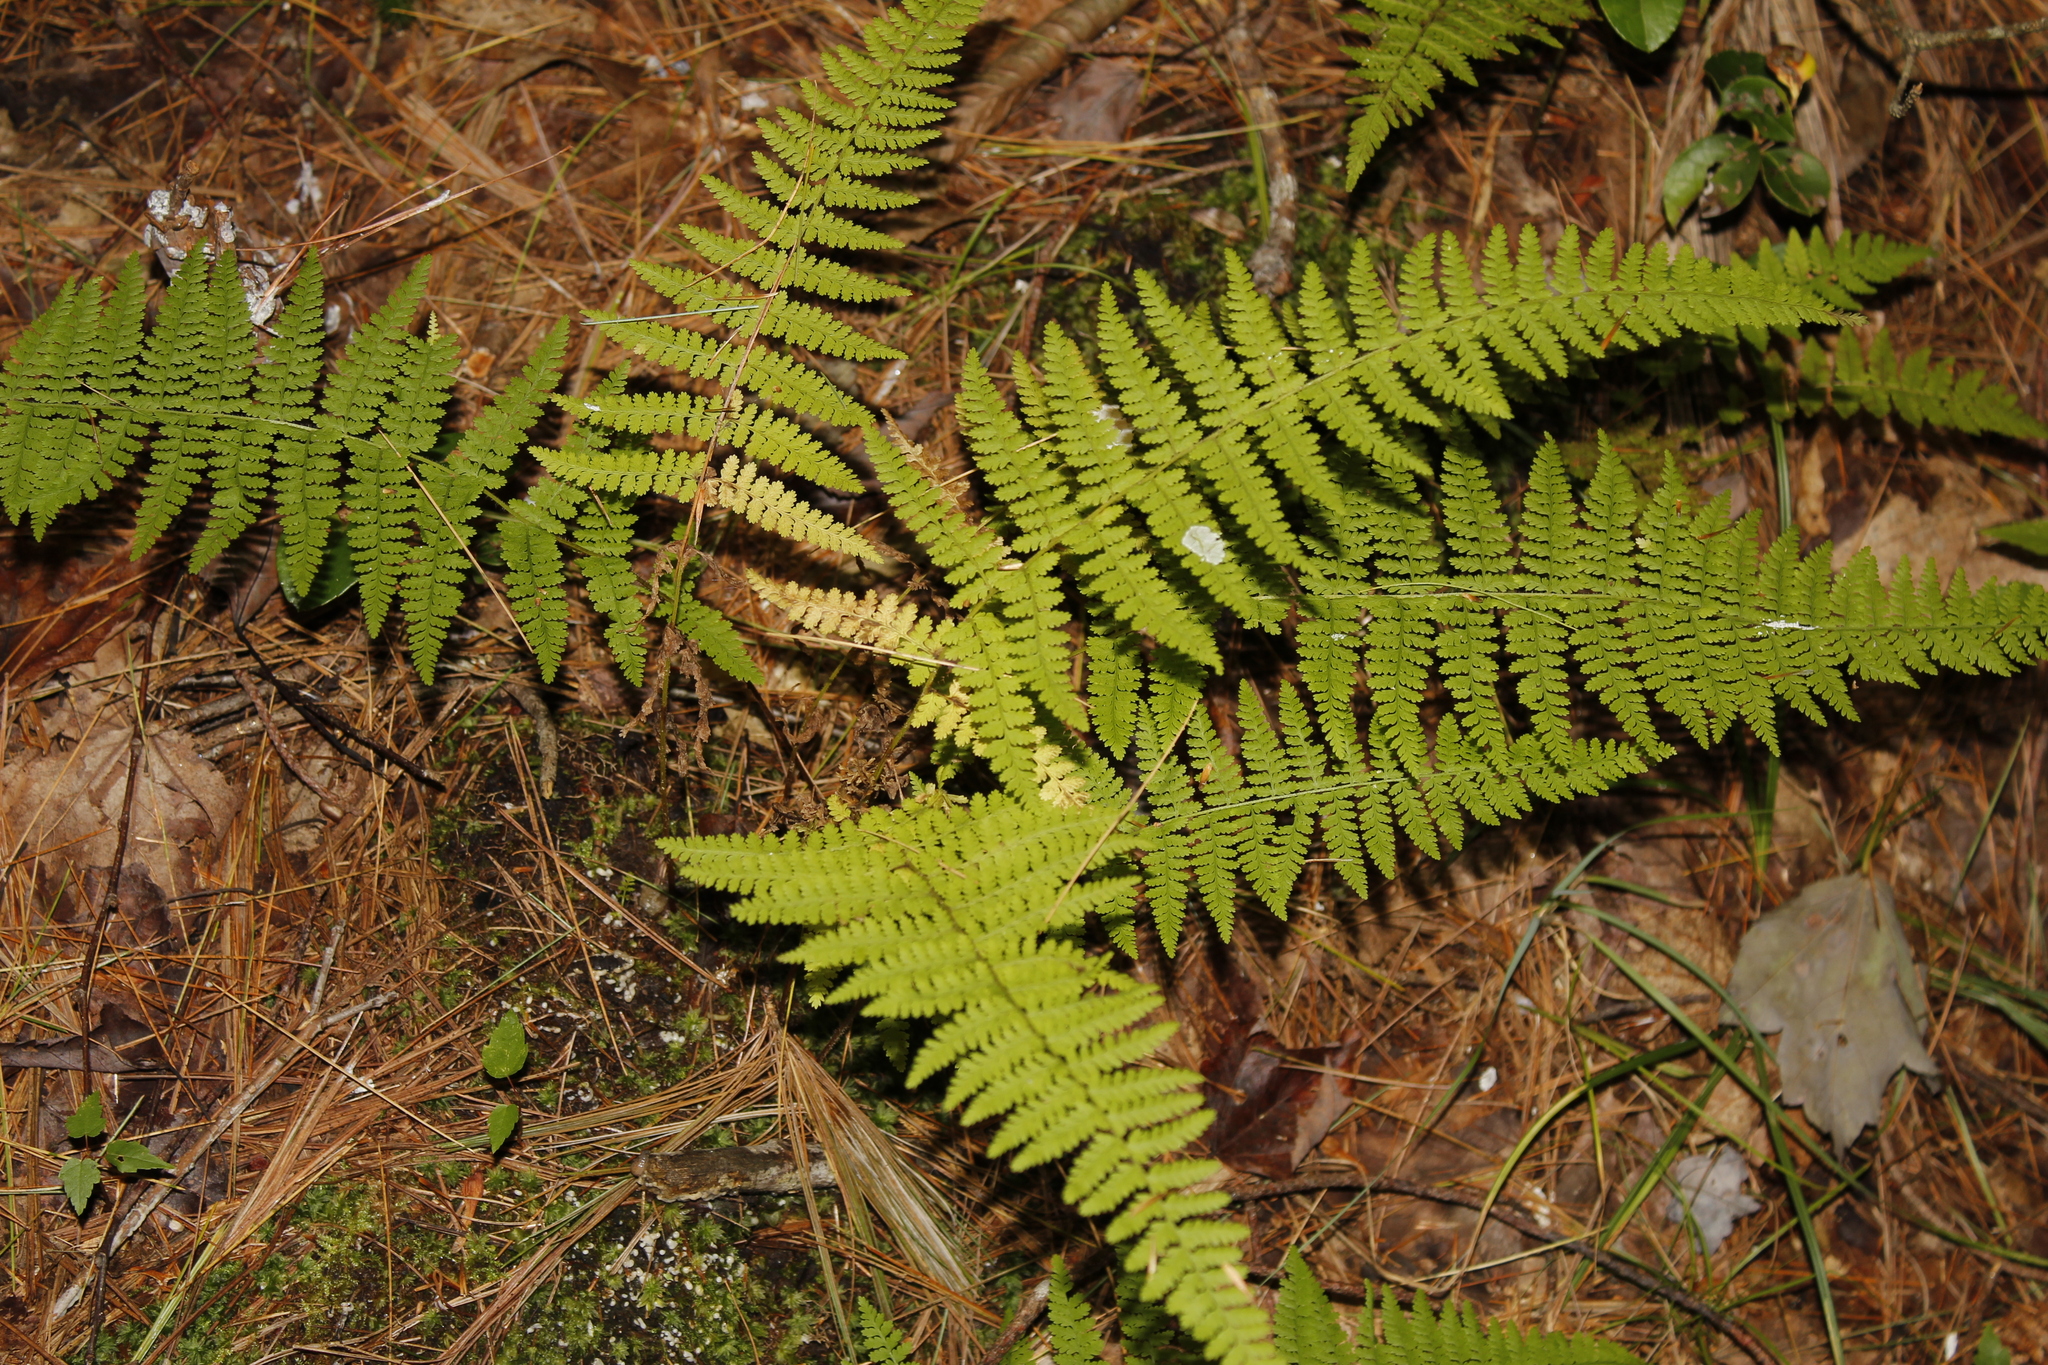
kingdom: Plantae
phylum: Tracheophyta
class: Polypodiopsida
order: Polypodiales
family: Dennstaedtiaceae
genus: Sitobolium
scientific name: Sitobolium punctilobum
